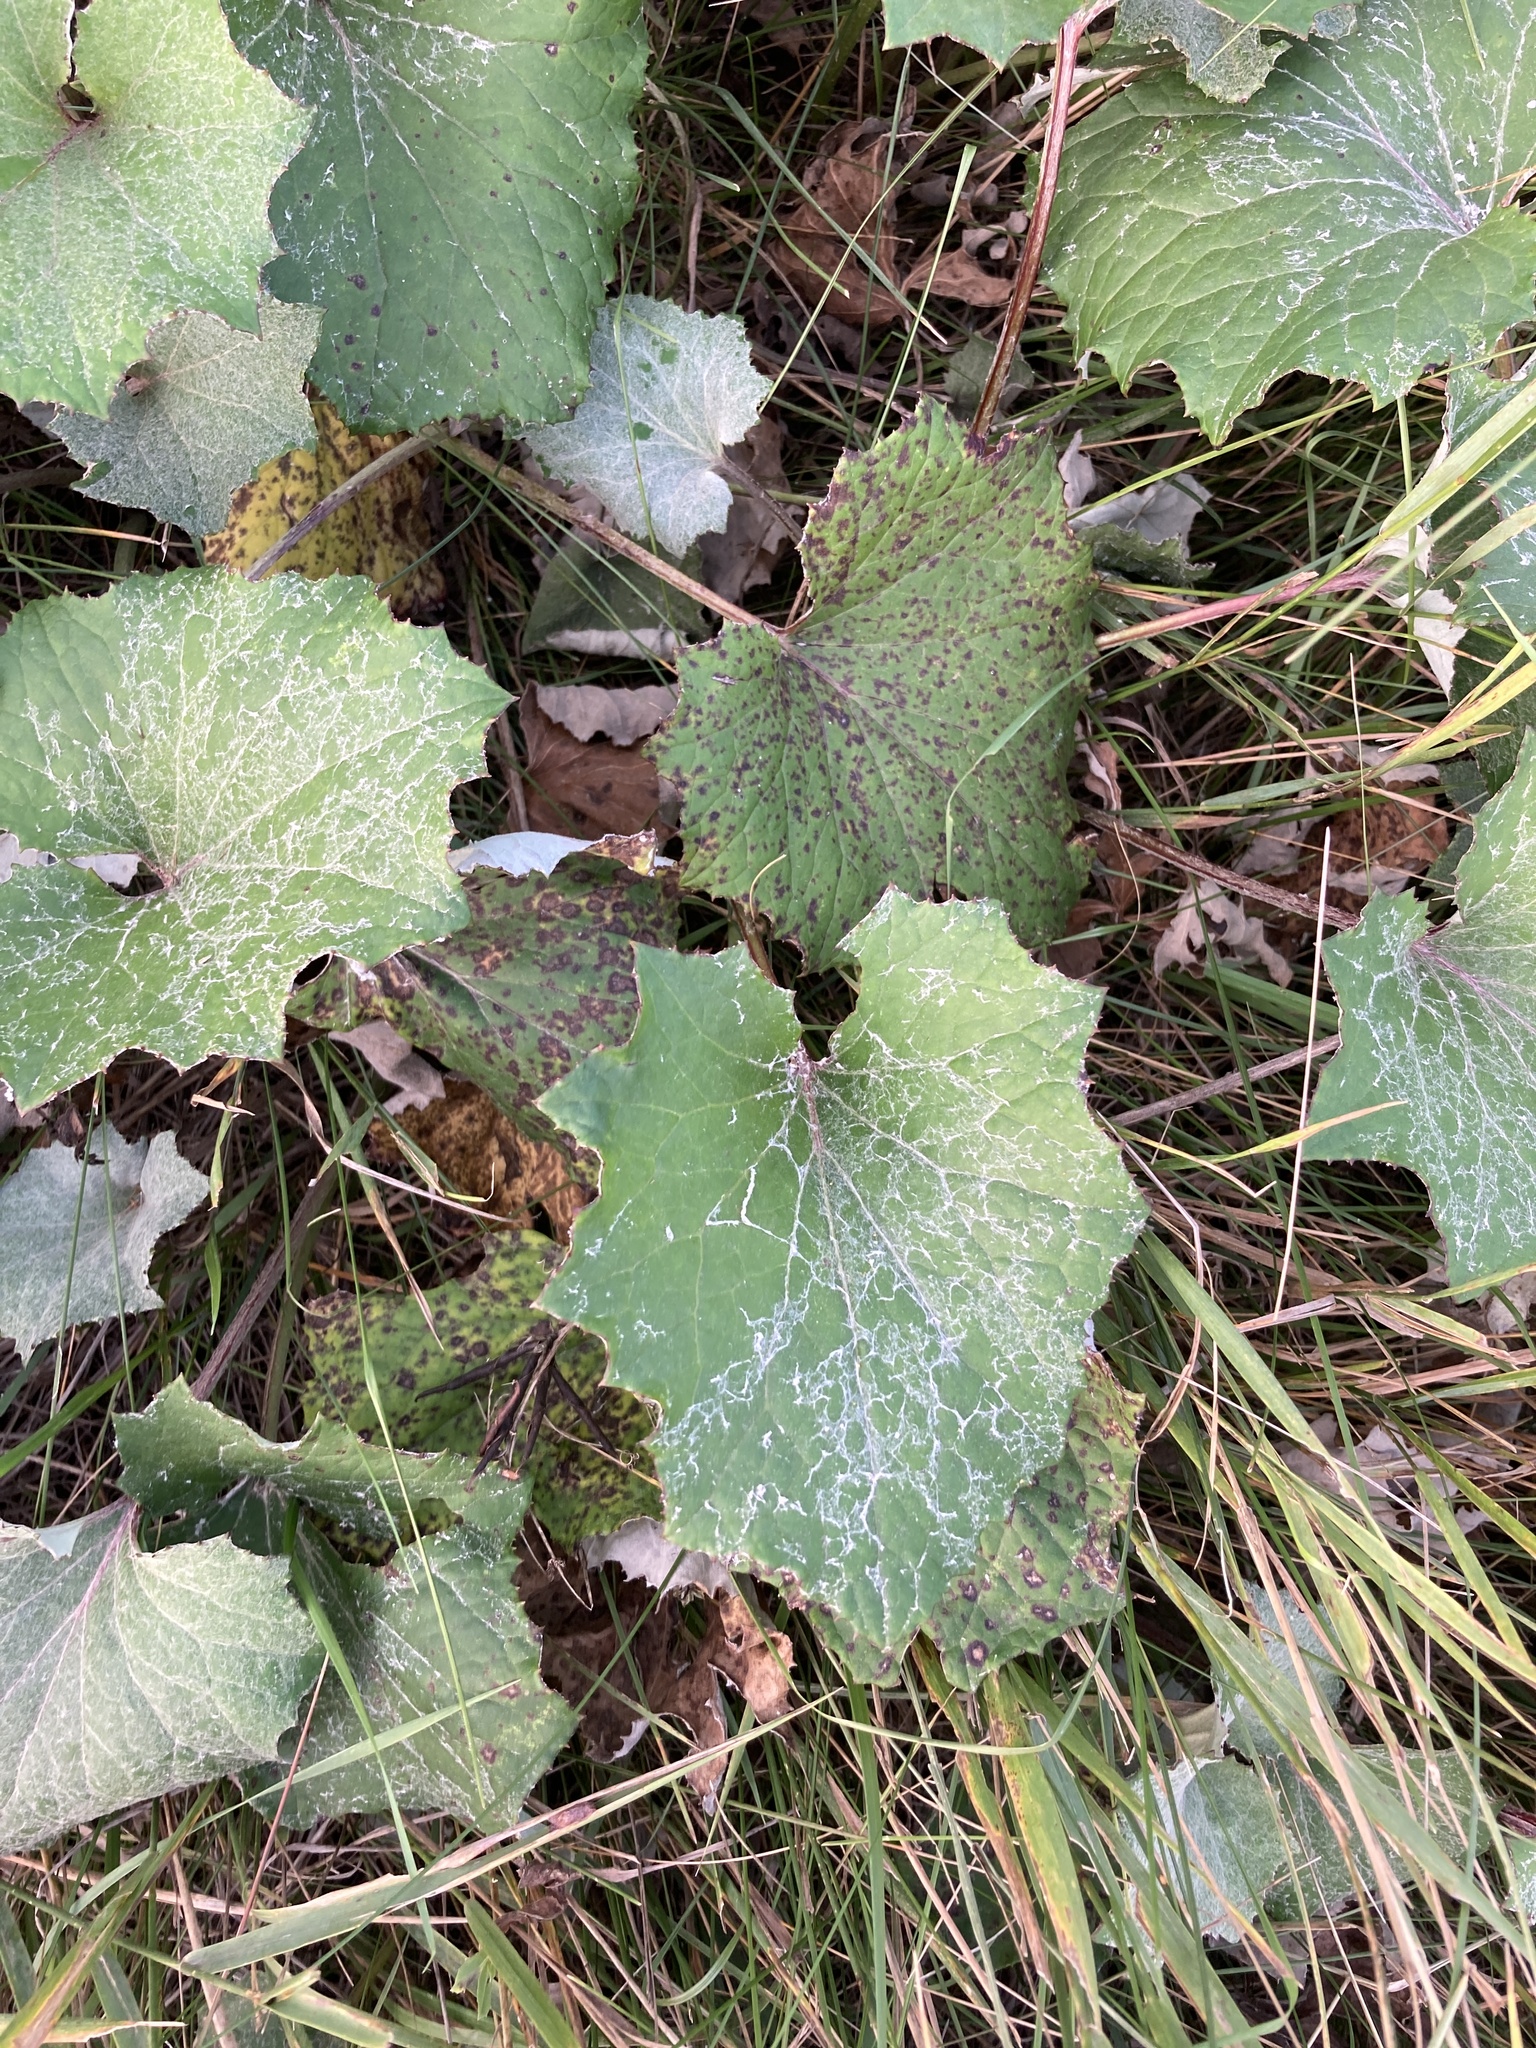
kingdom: Plantae
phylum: Tracheophyta
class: Magnoliopsida
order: Asterales
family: Asteraceae
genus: Tussilago
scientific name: Tussilago farfara
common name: Coltsfoot
